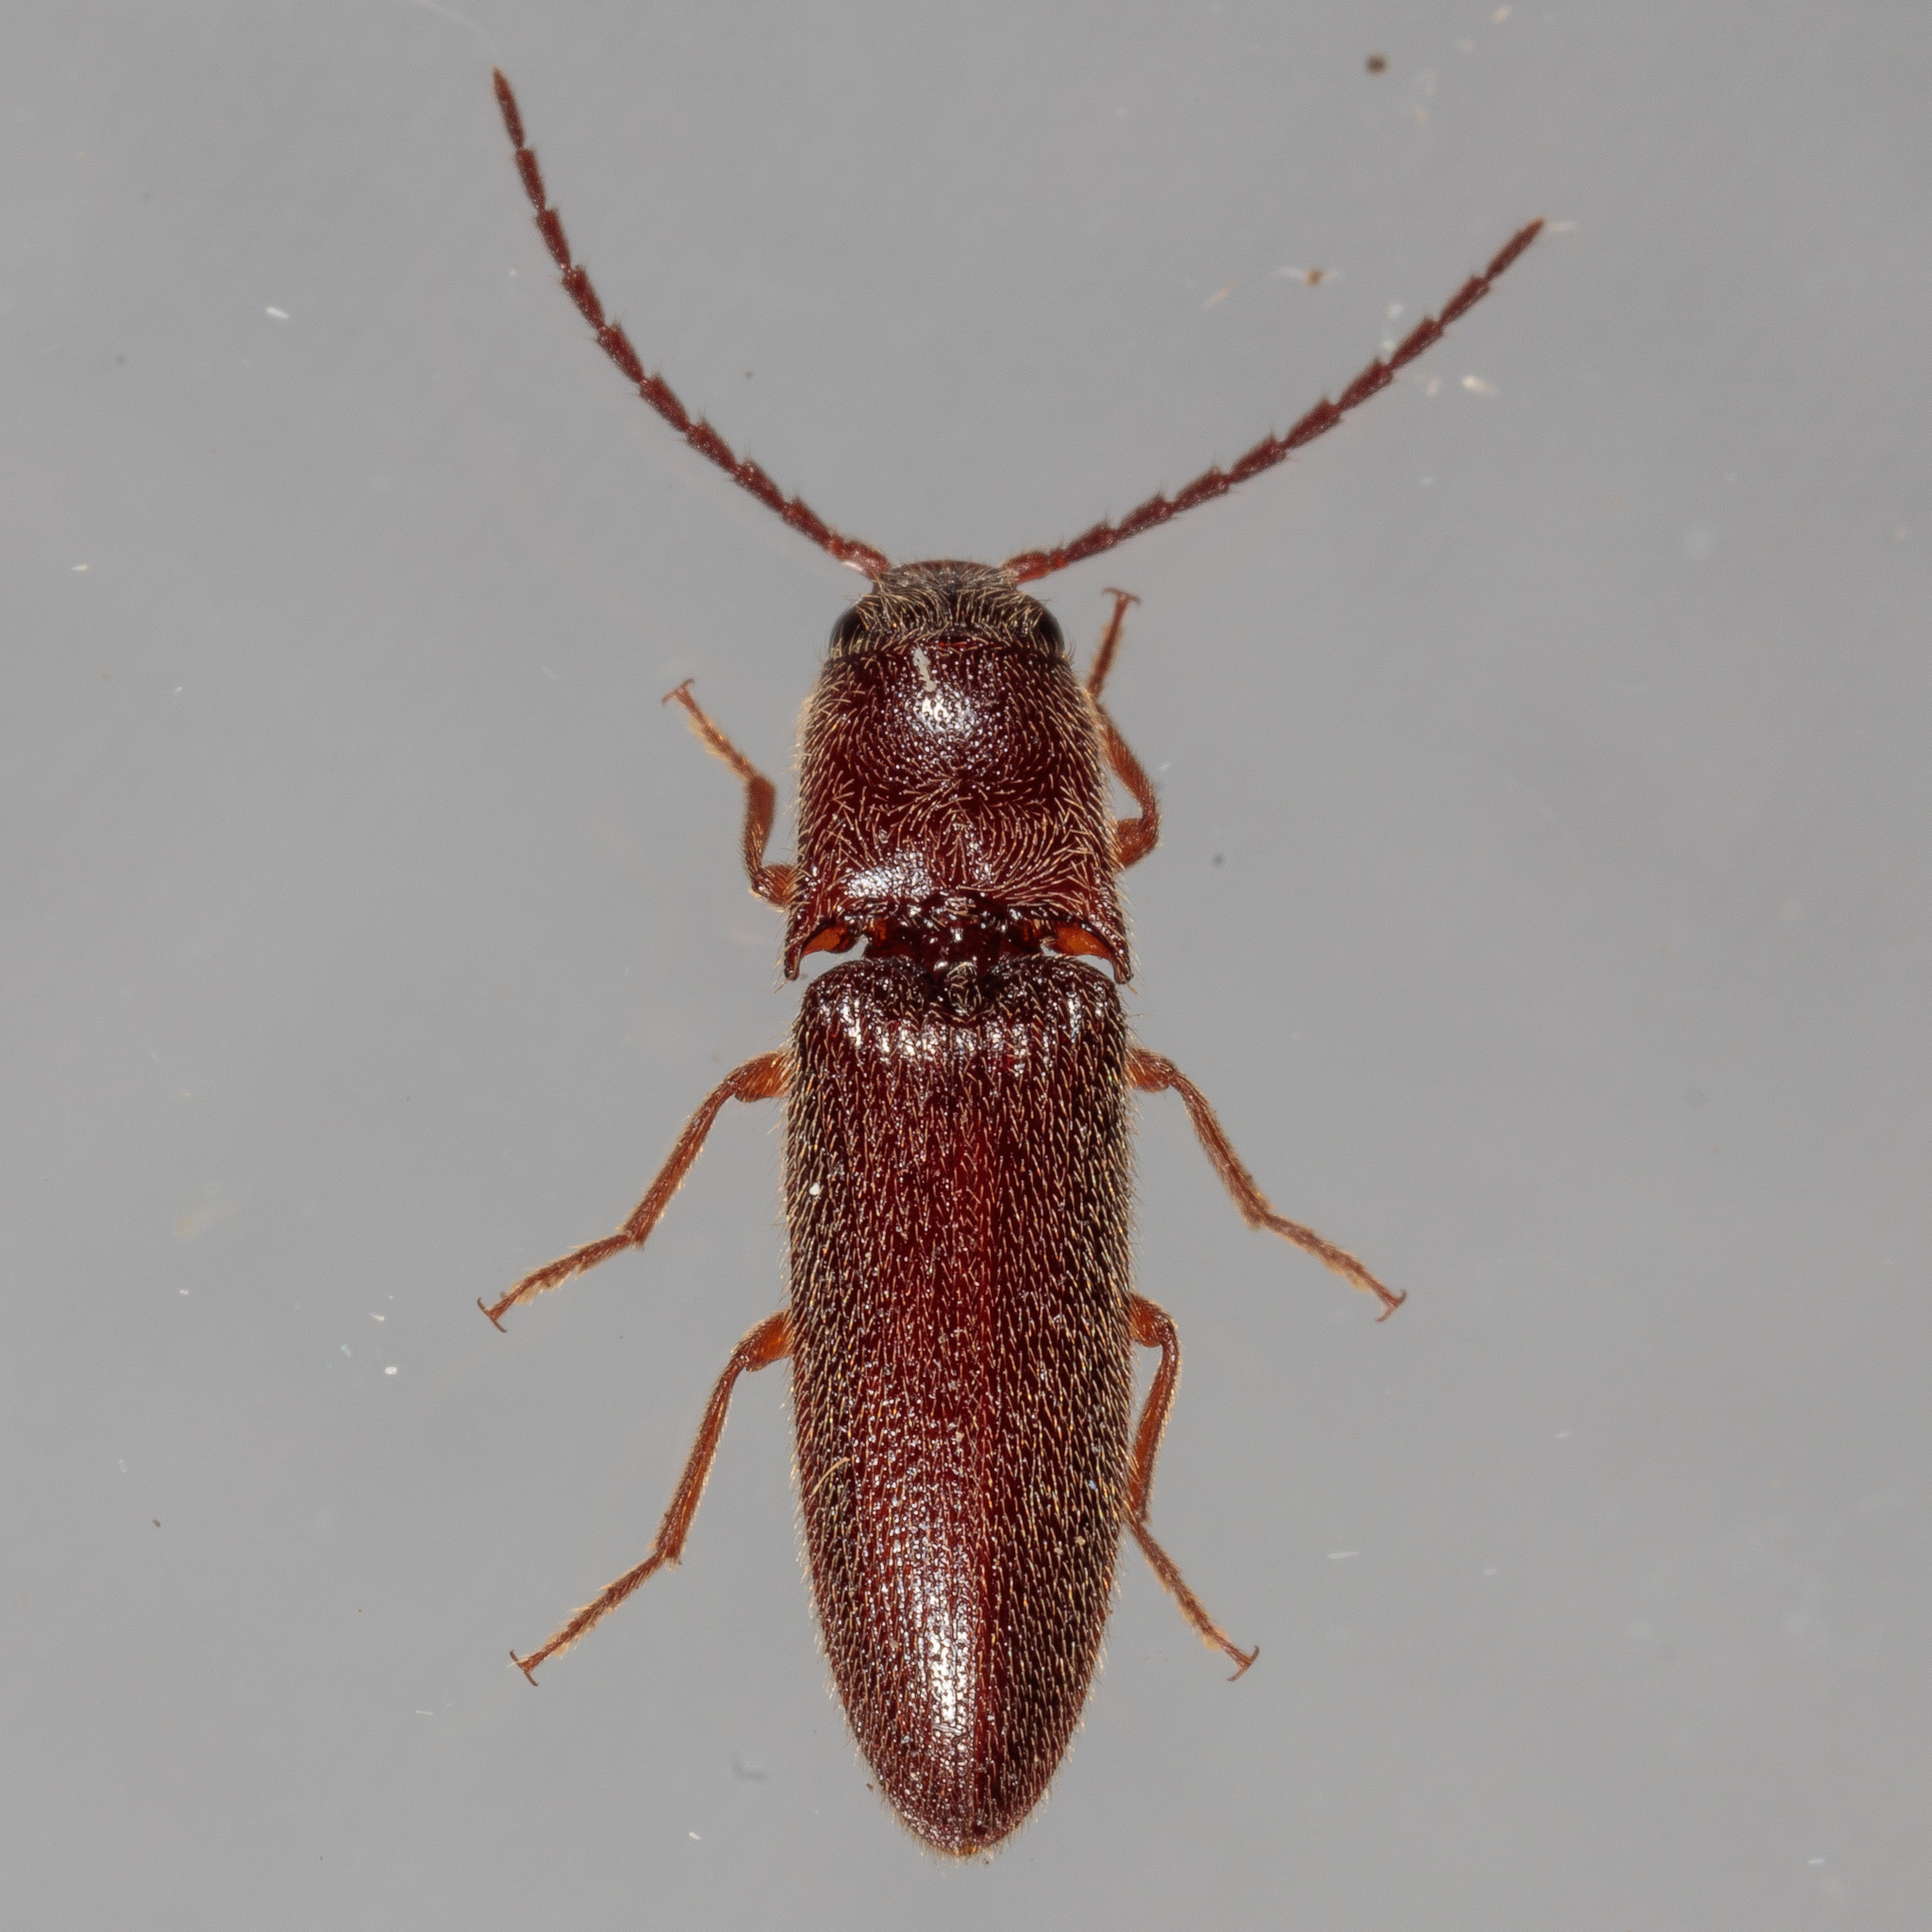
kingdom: Animalia
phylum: Arthropoda
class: Insecta
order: Coleoptera
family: Elateridae
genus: Dipropus
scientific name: Dipropus
